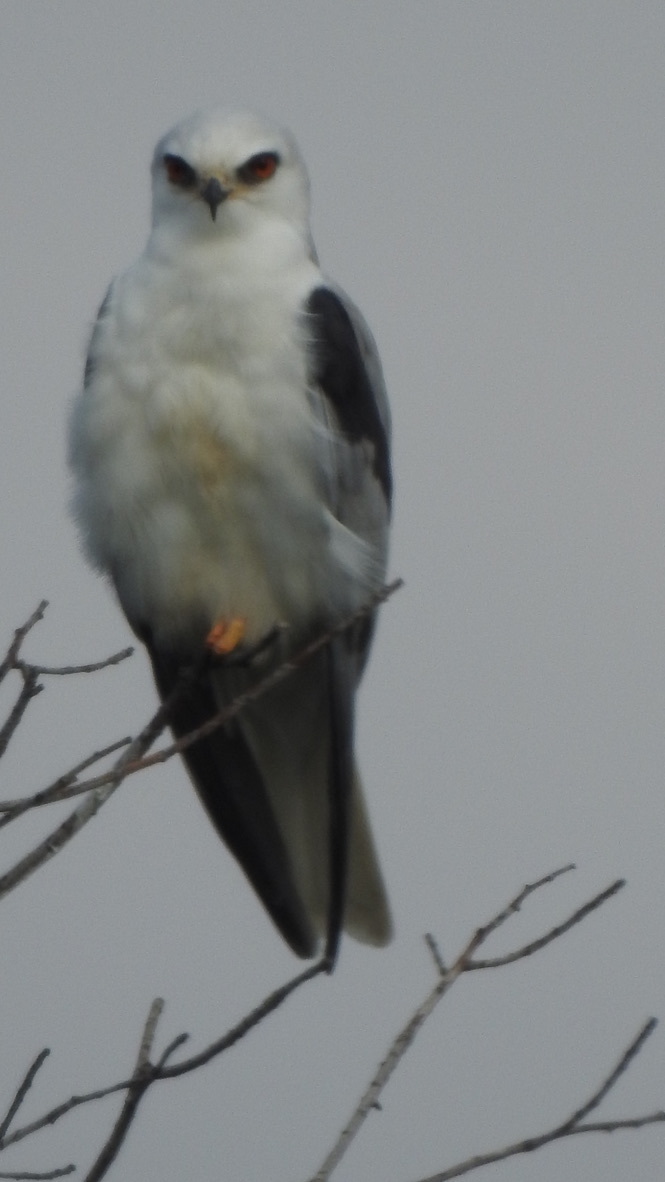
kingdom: Animalia
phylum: Chordata
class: Aves
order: Accipitriformes
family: Accipitridae
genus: Elanus
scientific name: Elanus leucurus
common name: White-tailed kite
